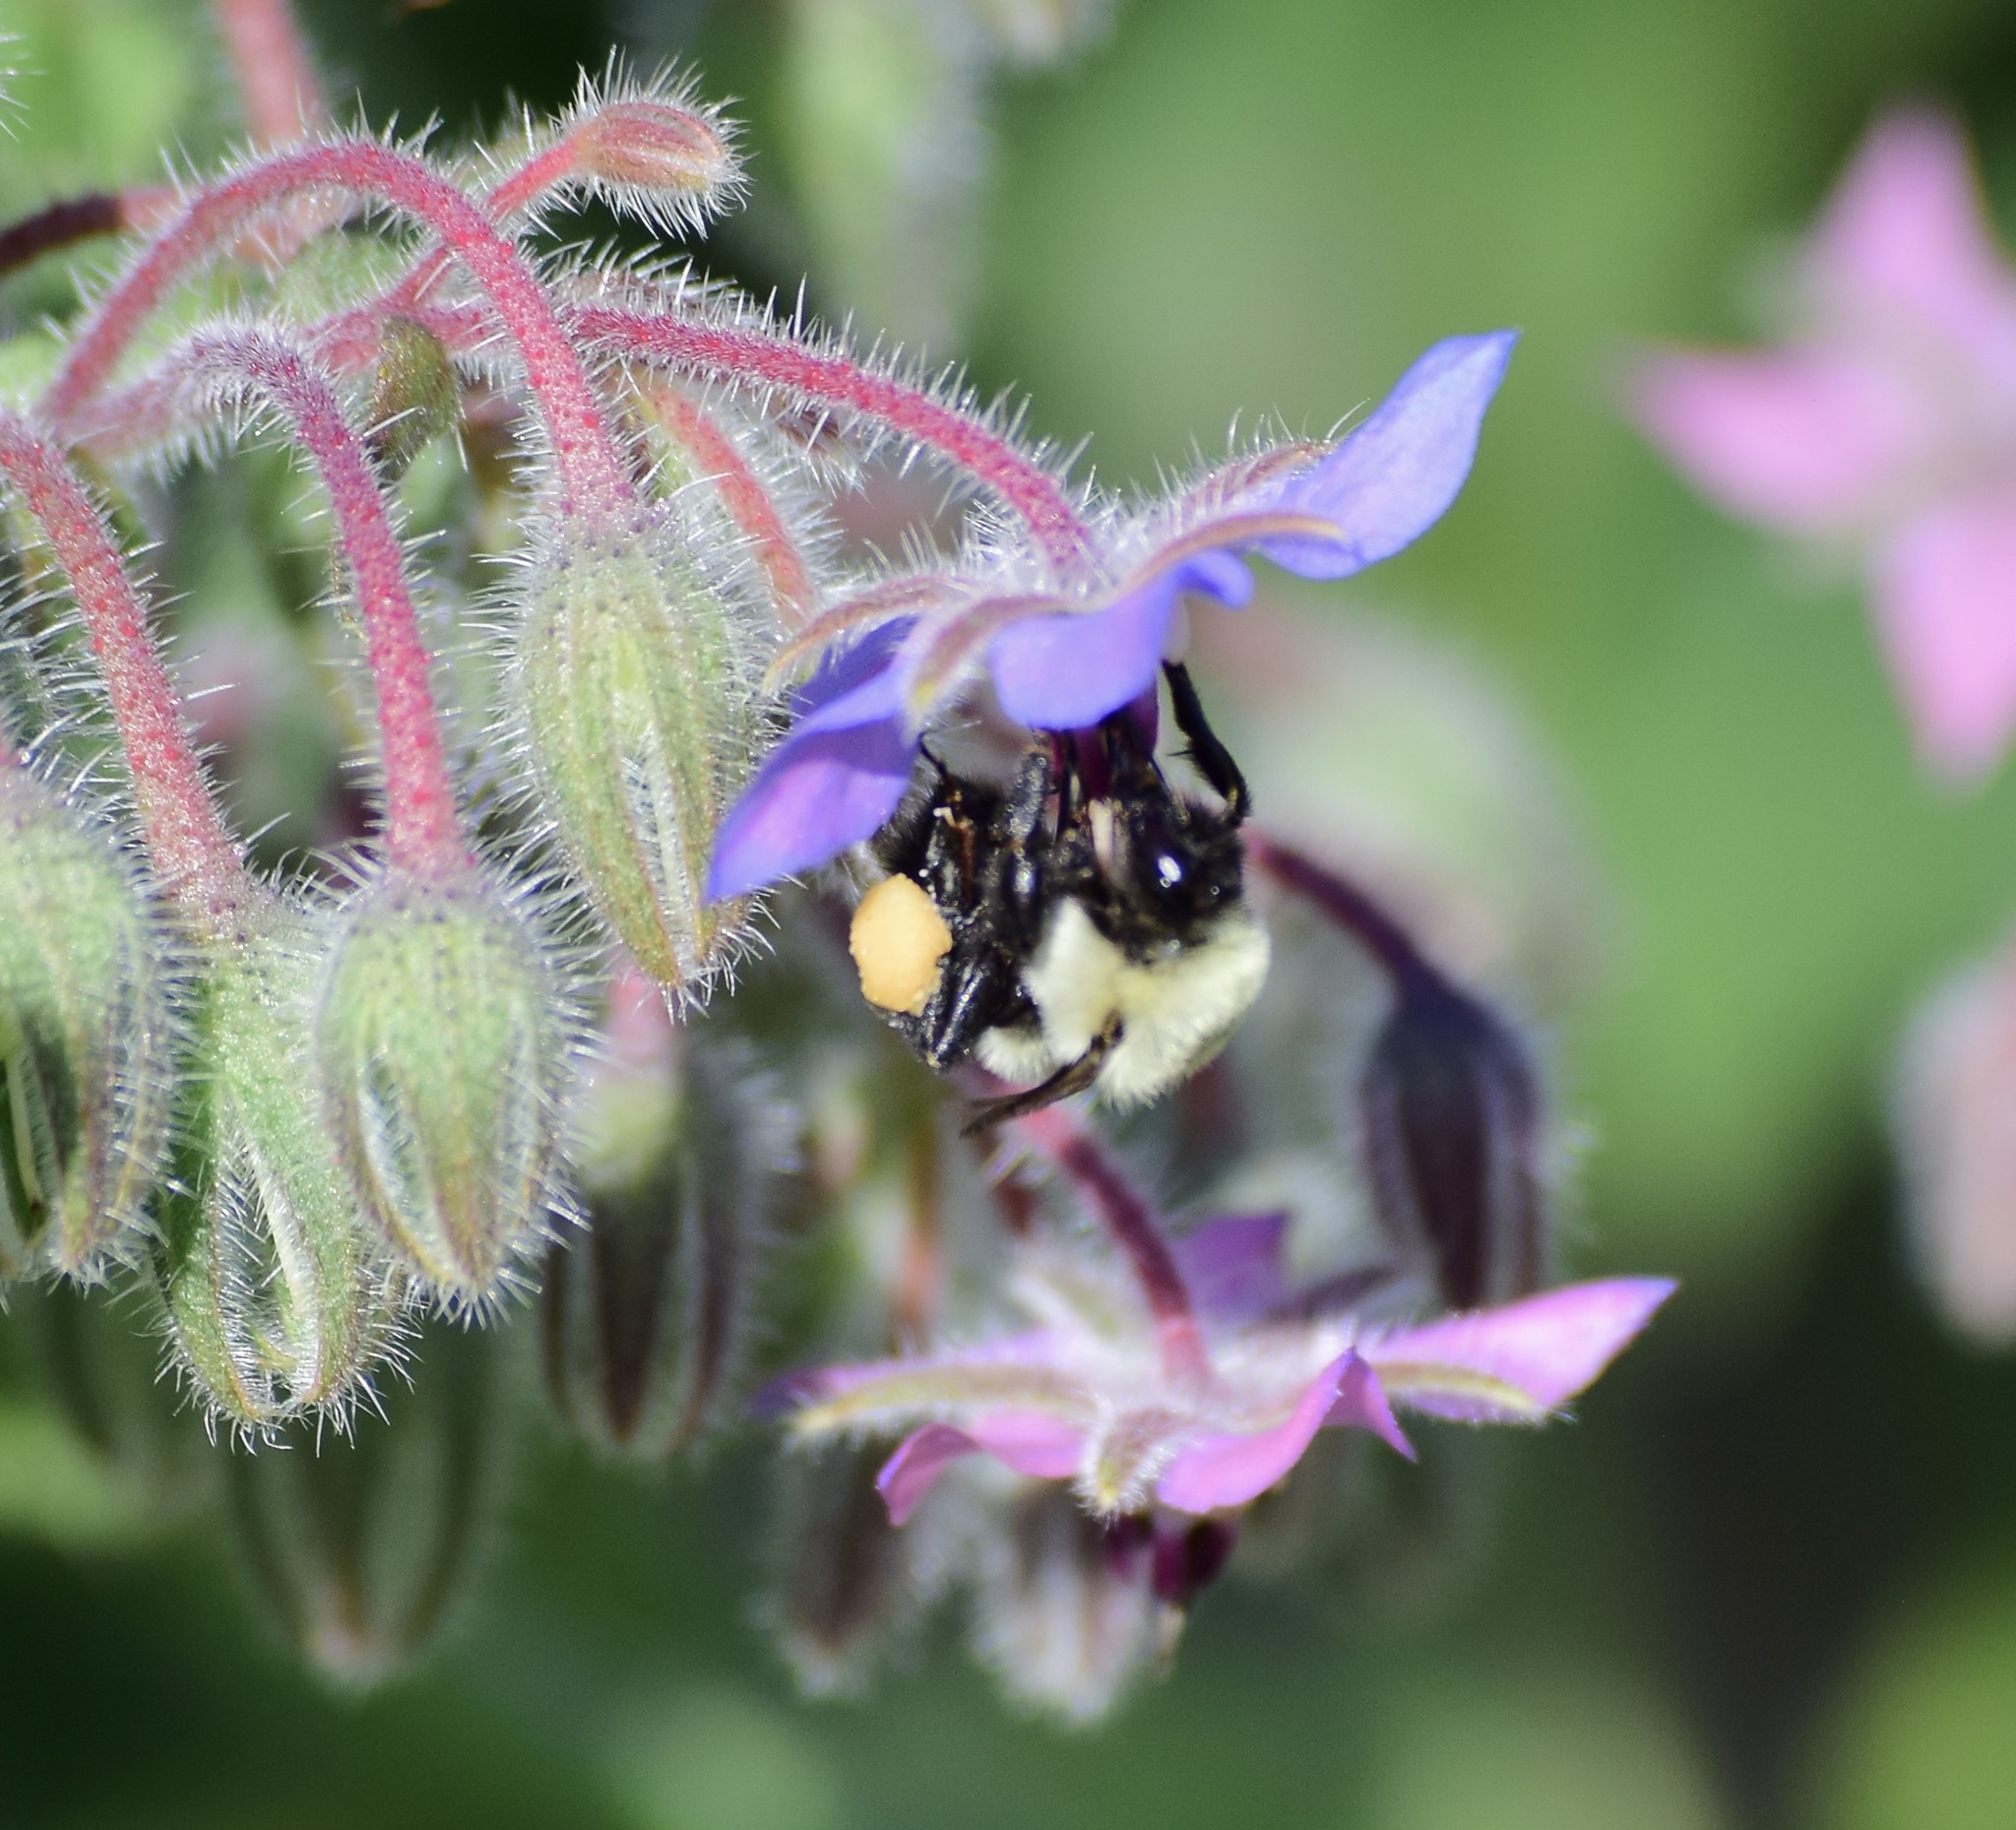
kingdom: Animalia
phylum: Arthropoda
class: Insecta
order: Hymenoptera
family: Apidae
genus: Bombus
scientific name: Bombus impatiens
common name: Common eastern bumble bee
